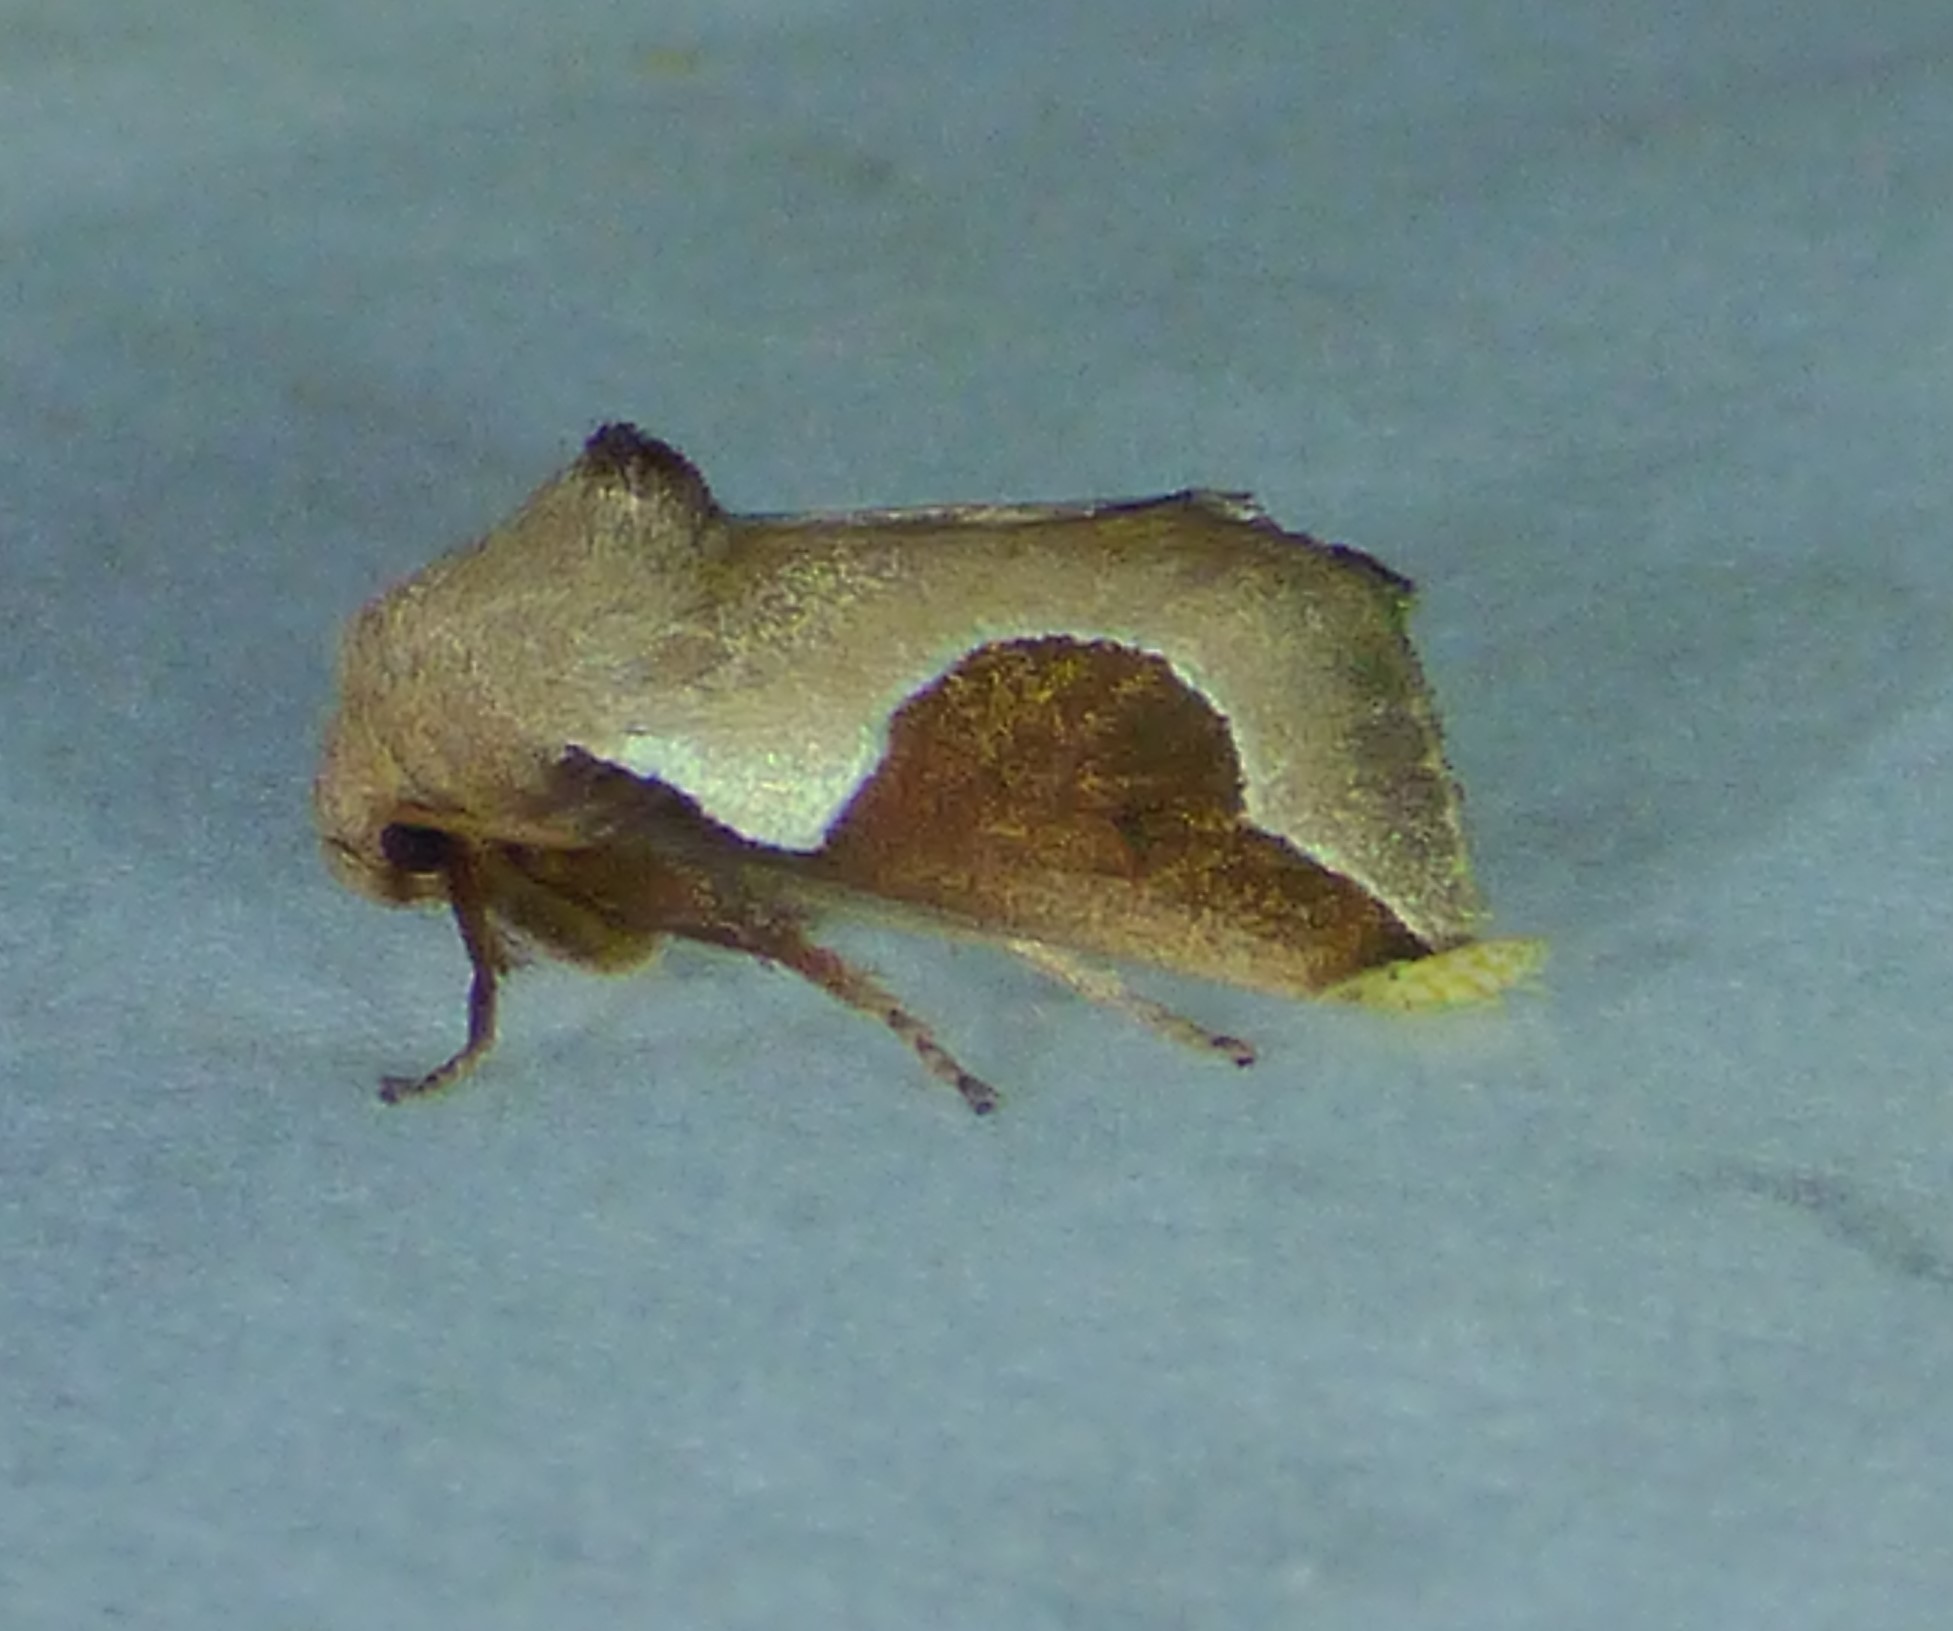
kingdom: Animalia
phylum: Arthropoda
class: Insecta
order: Lepidoptera
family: Limacodidae
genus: Prolimacodes
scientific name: Prolimacodes badia
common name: Skiff moth
